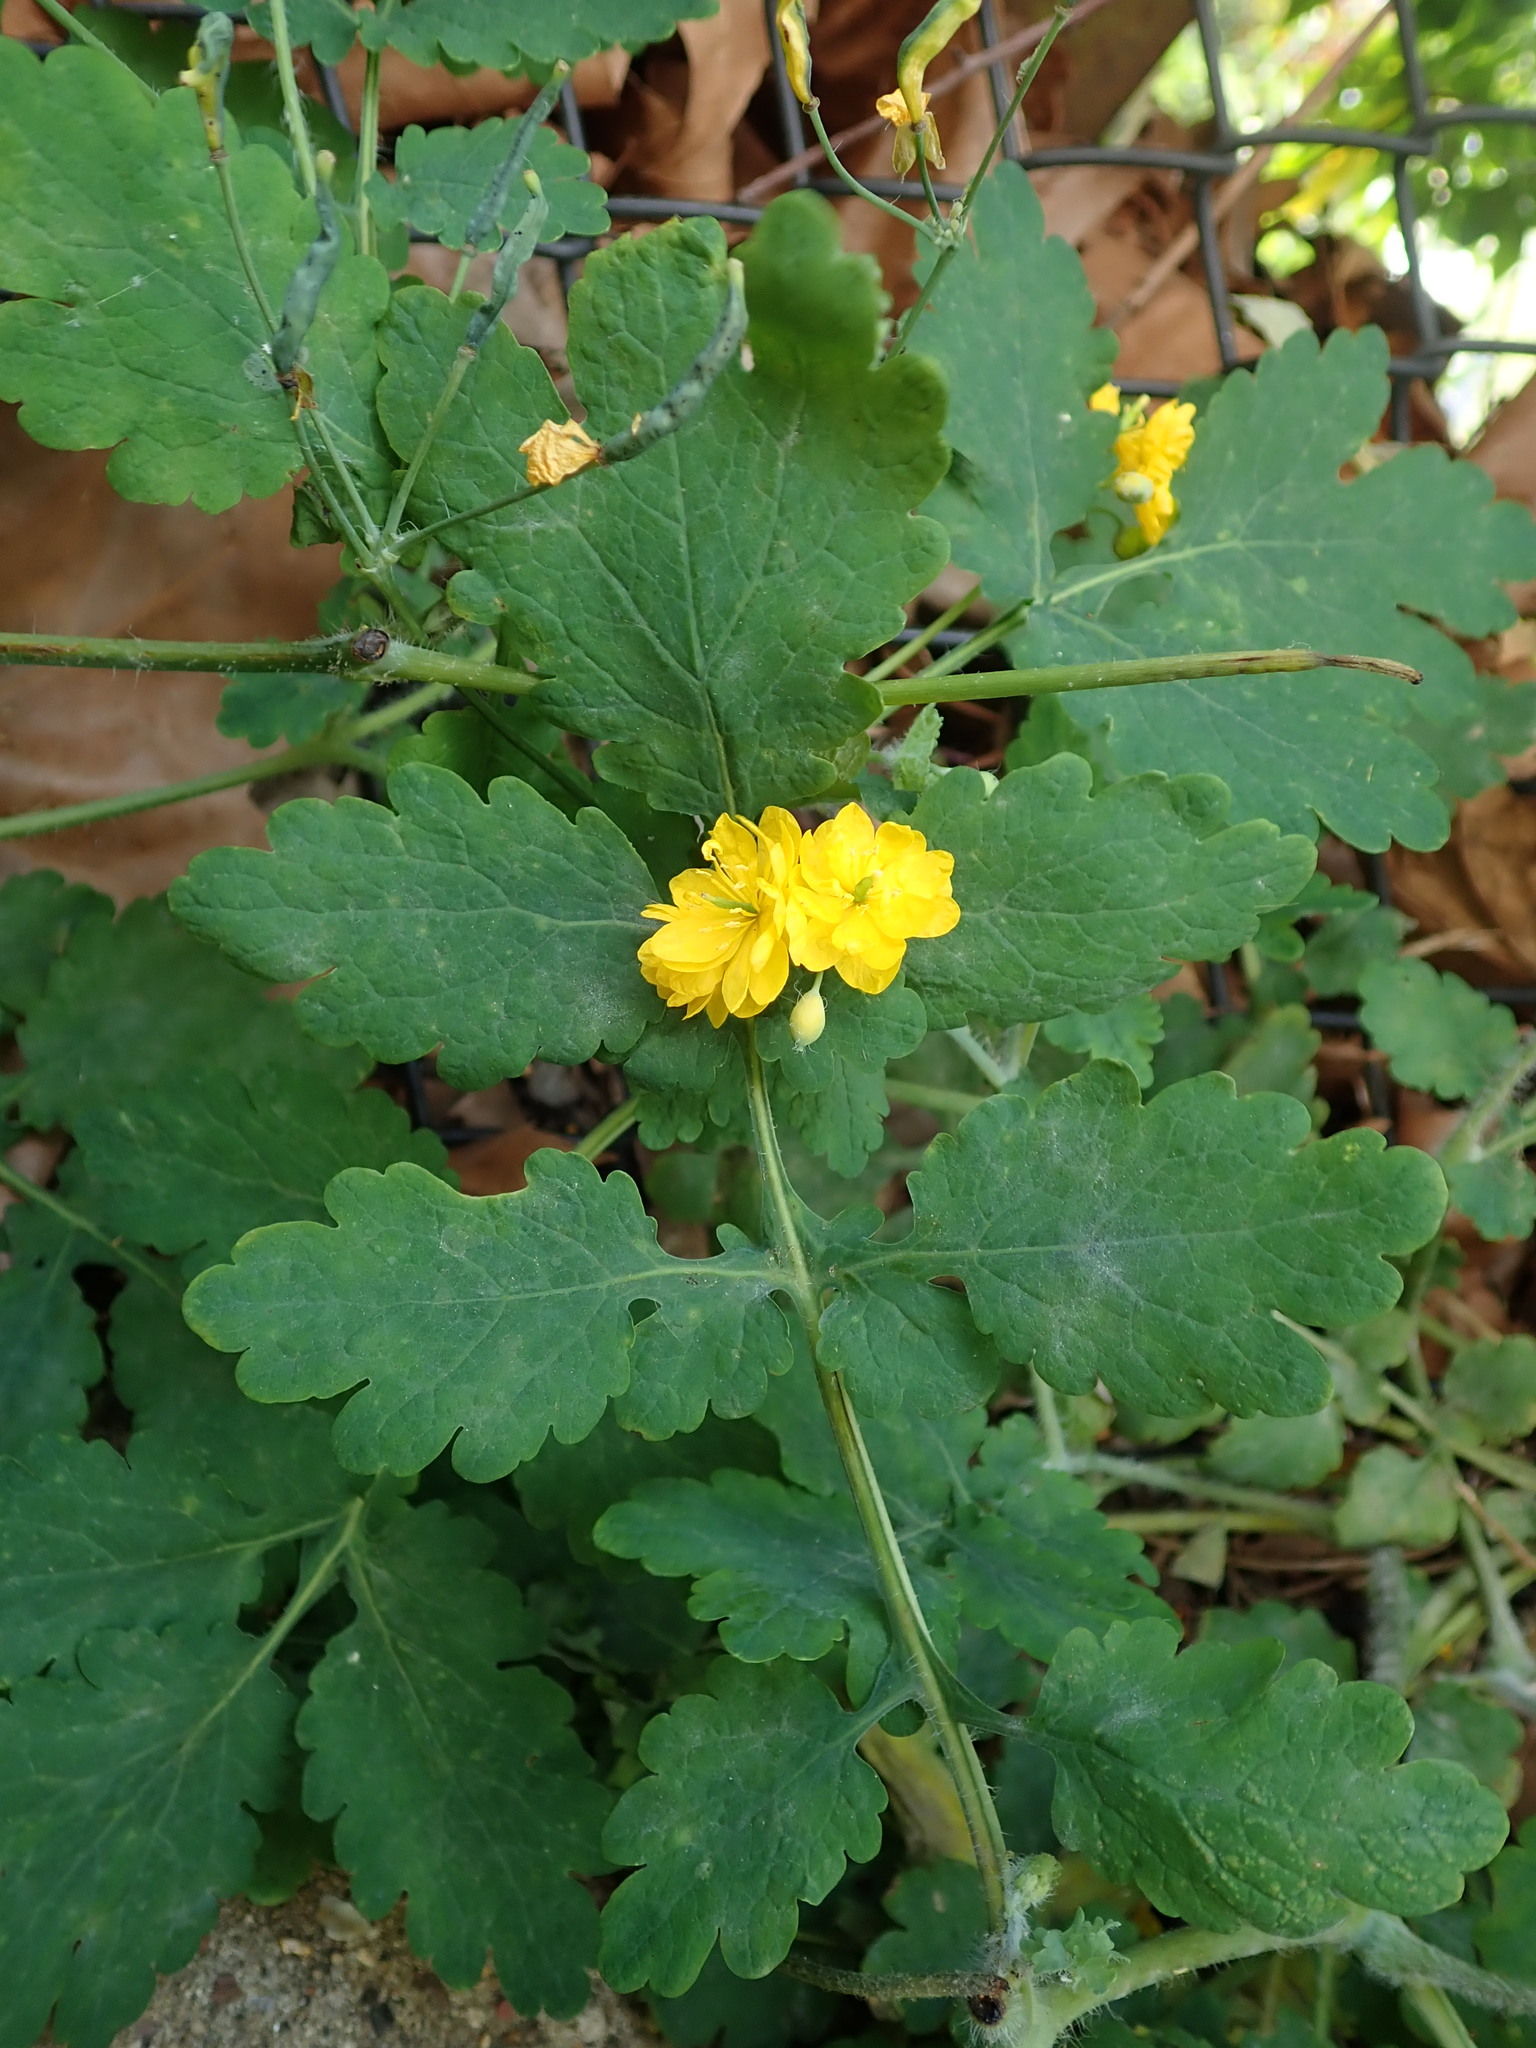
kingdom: Plantae
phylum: Tracheophyta
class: Magnoliopsida
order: Ranunculales
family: Papaveraceae
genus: Chelidonium
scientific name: Chelidonium majus
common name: Greater celandine
